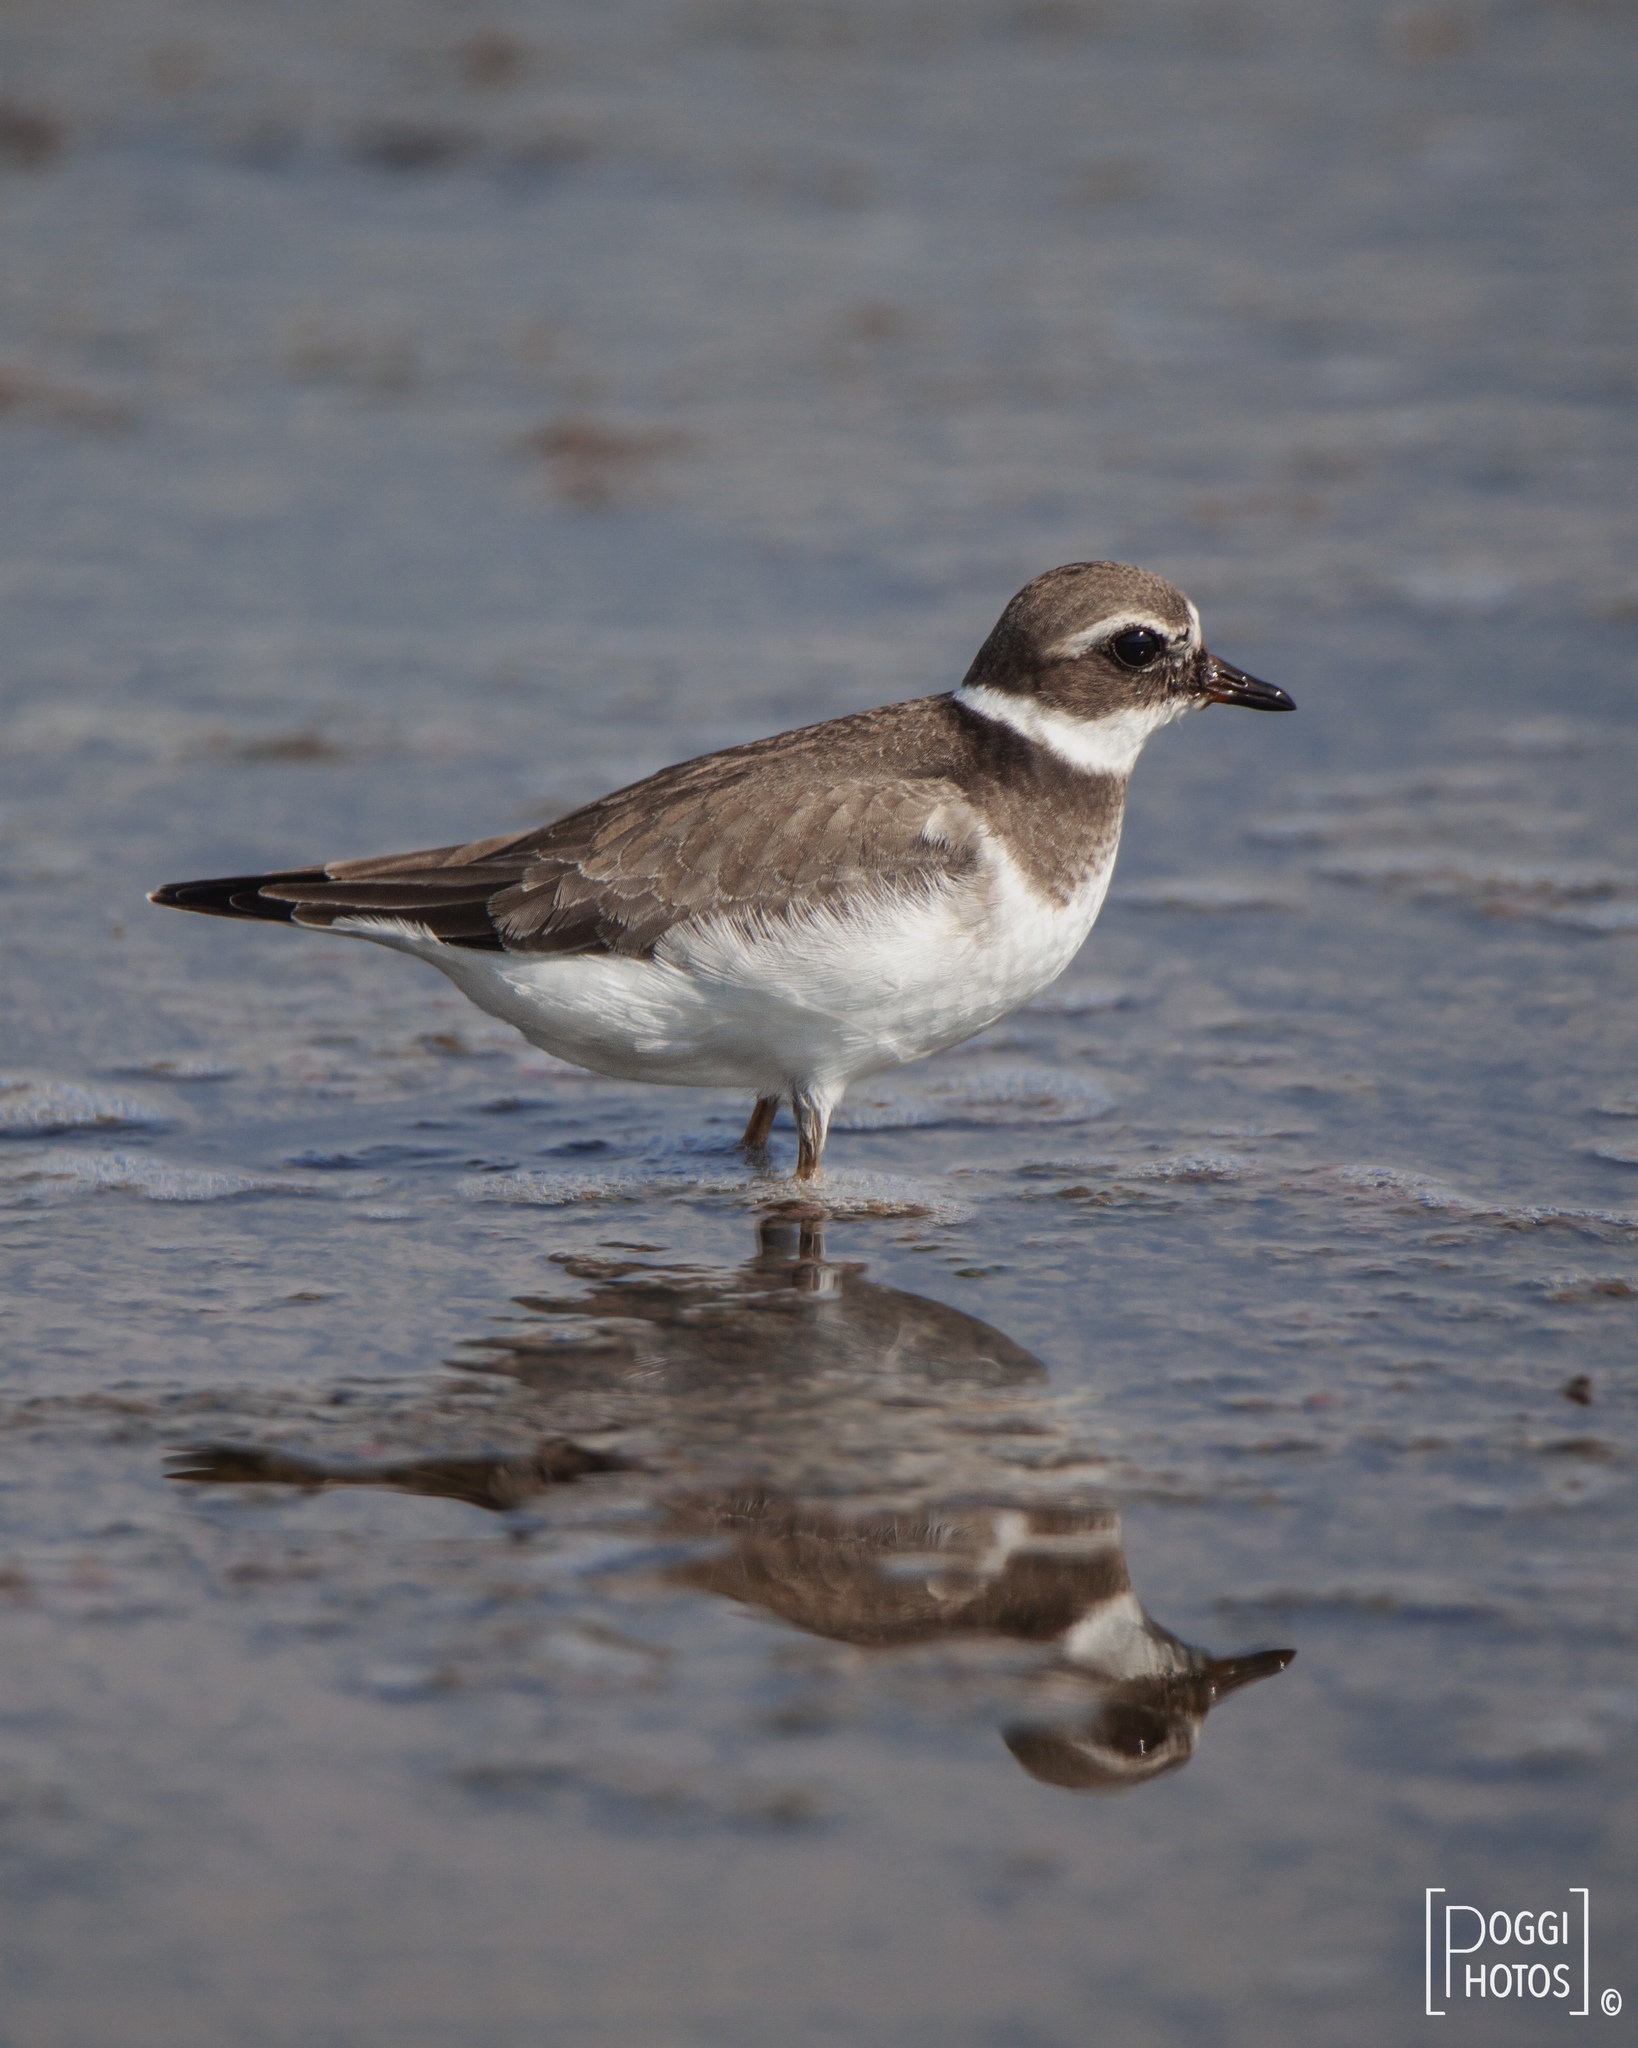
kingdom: Animalia
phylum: Chordata
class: Aves
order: Charadriiformes
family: Charadriidae
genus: Charadrius
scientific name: Charadrius hiaticula
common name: Common ringed plover
